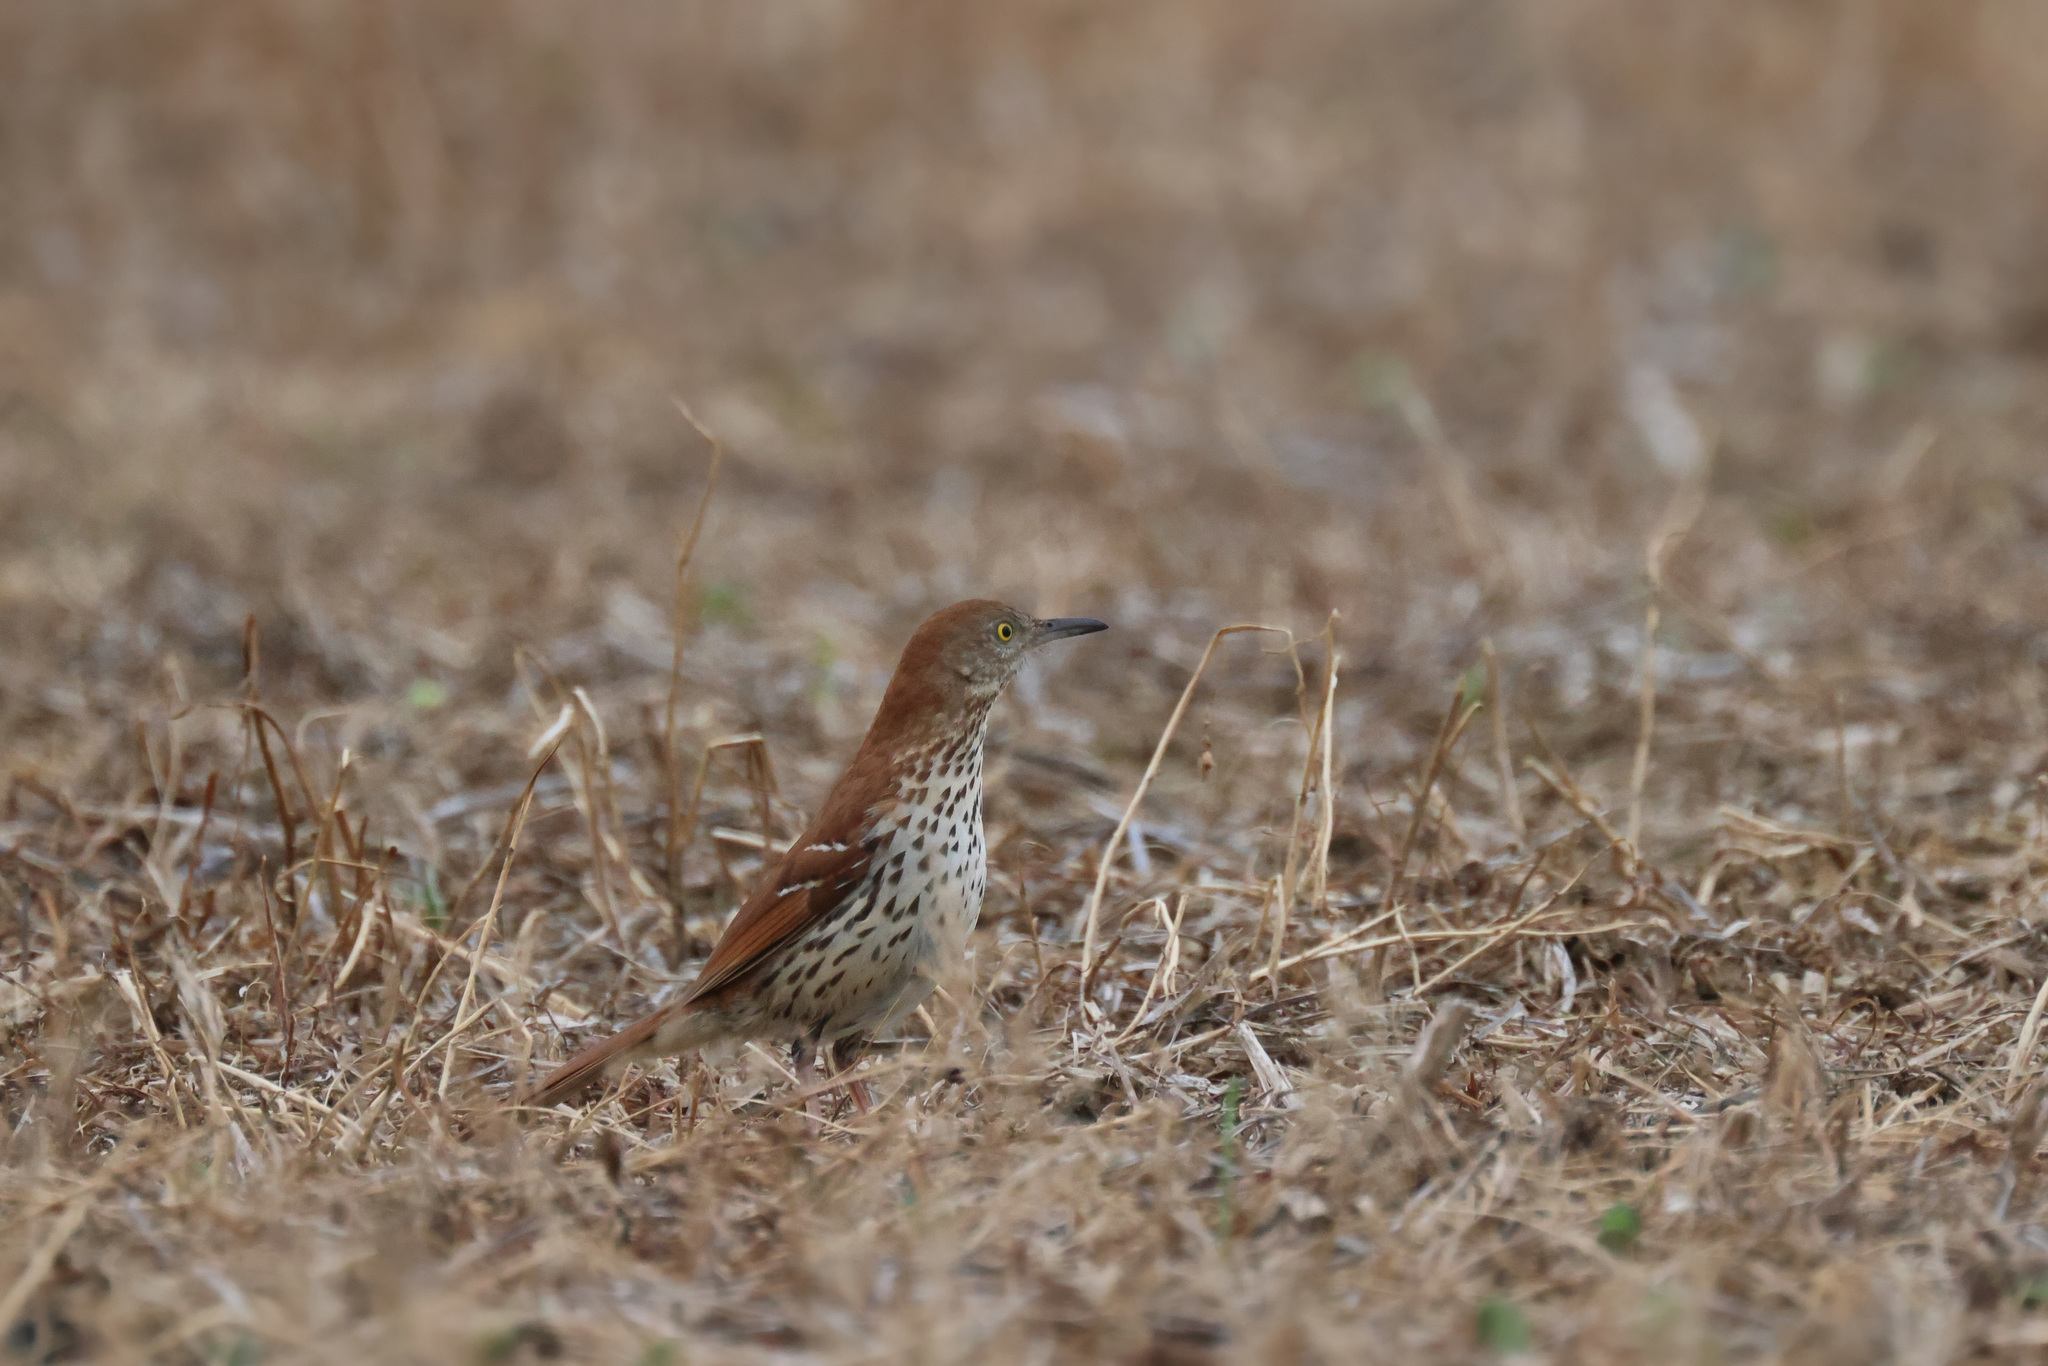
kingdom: Animalia
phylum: Chordata
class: Aves
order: Passeriformes
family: Mimidae
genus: Toxostoma
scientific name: Toxostoma rufum
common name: Brown thrasher
